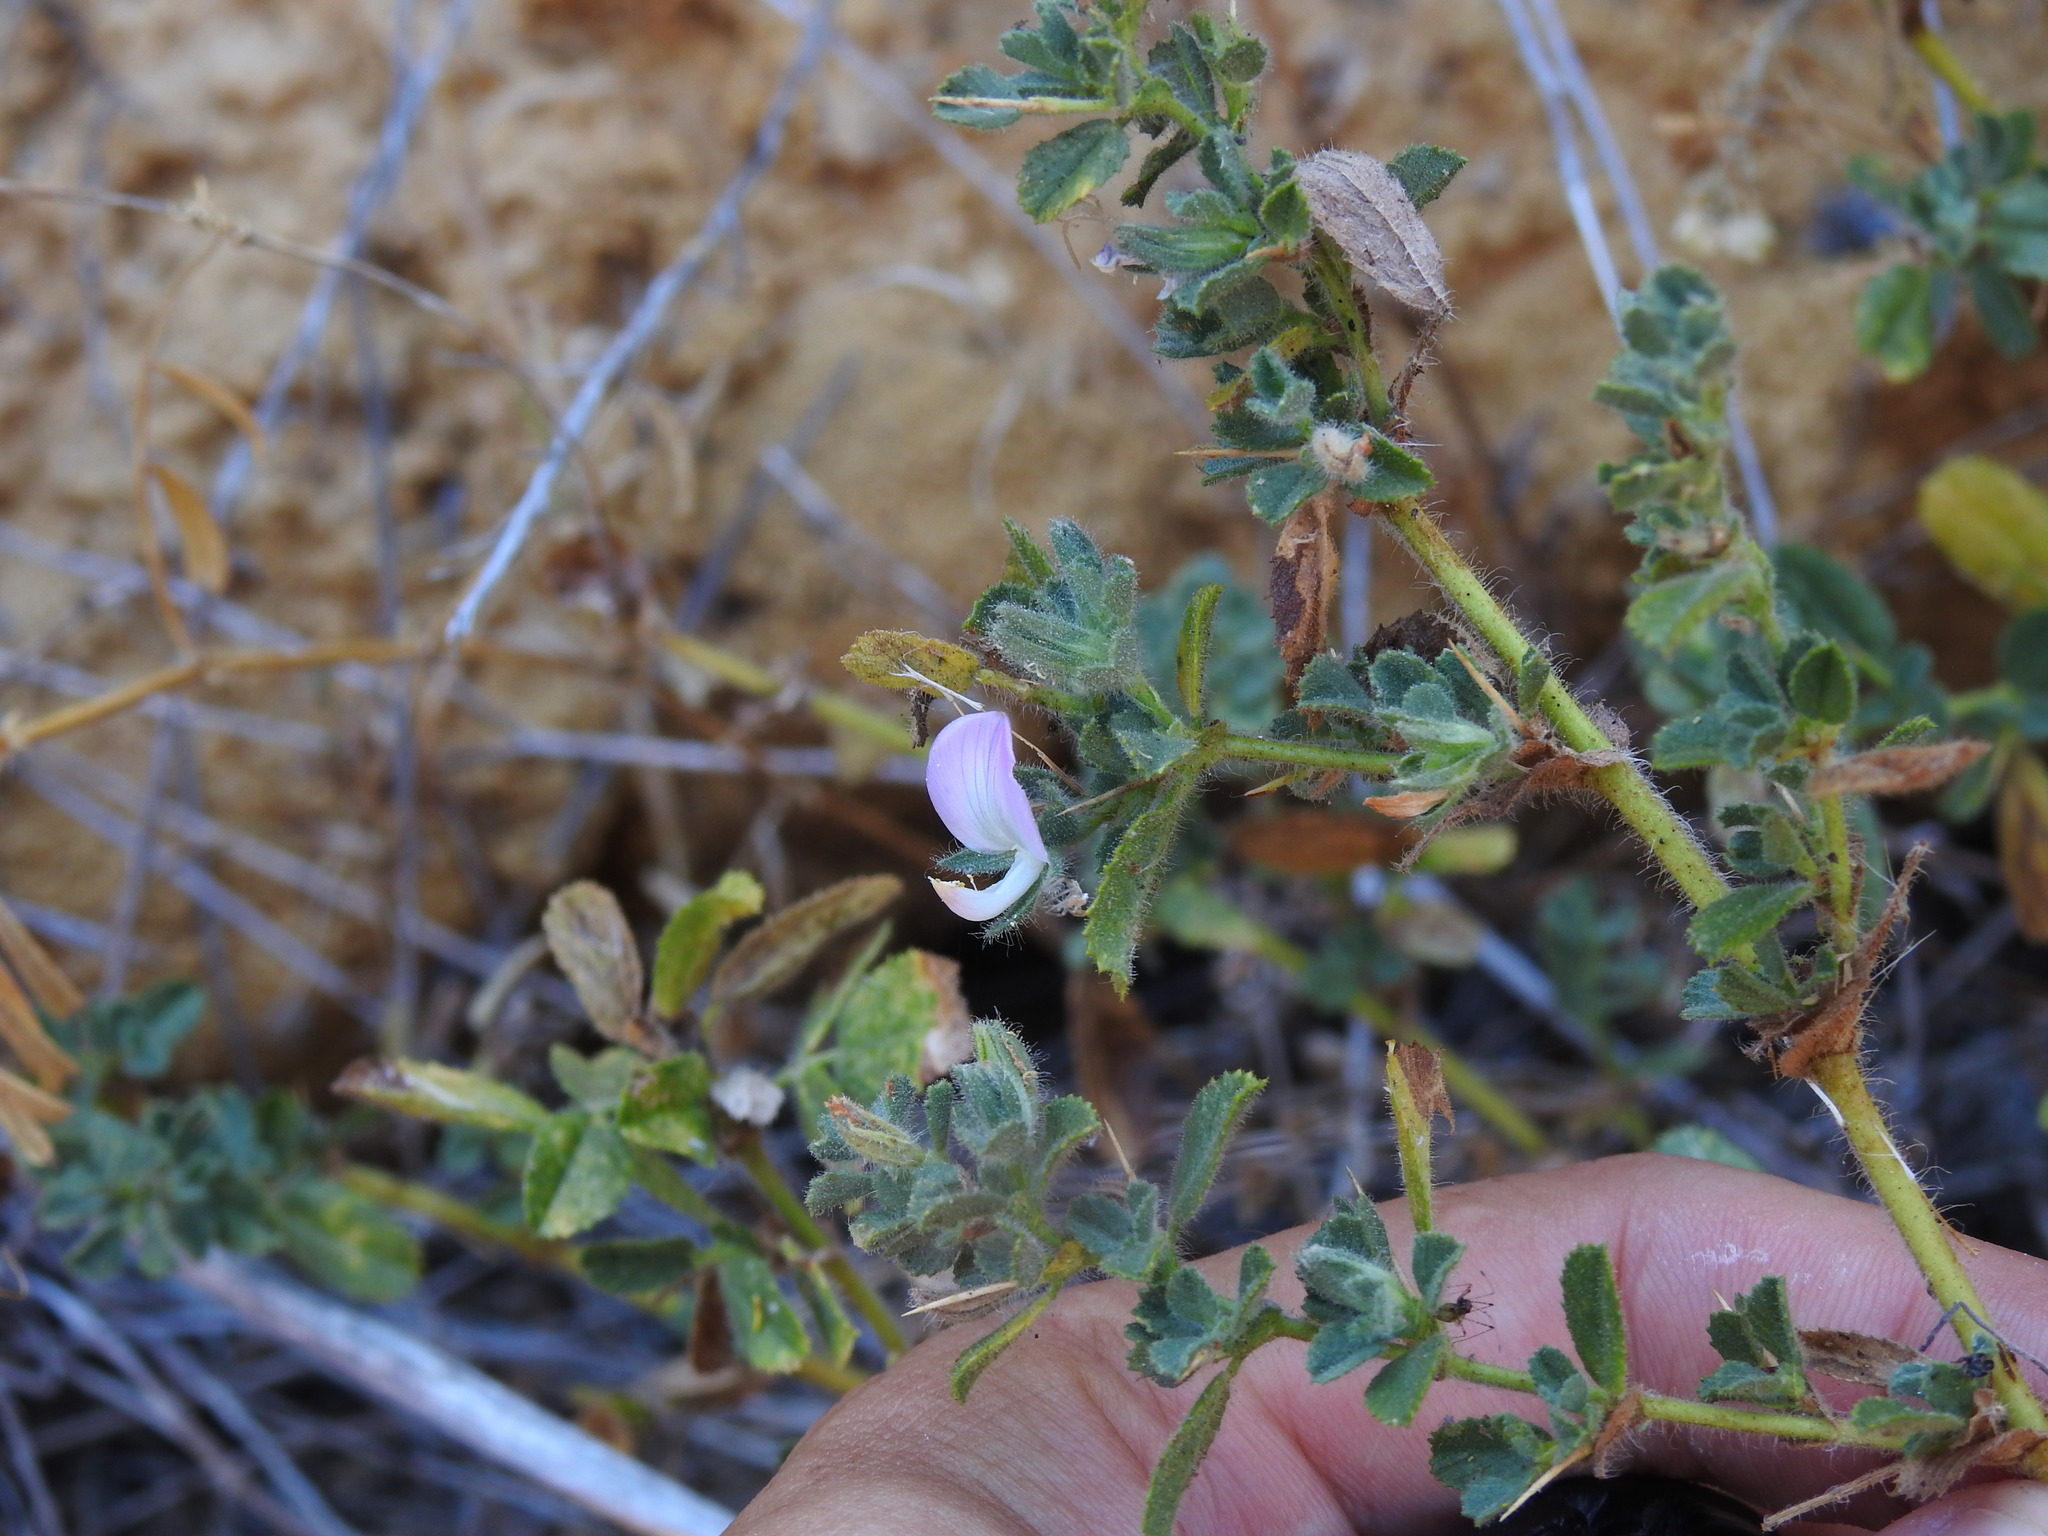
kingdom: Plantae
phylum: Tracheophyta
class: Magnoliopsida
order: Fabales
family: Fabaceae
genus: Ononis
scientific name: Ononis spinosa
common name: Spiny restharrow
